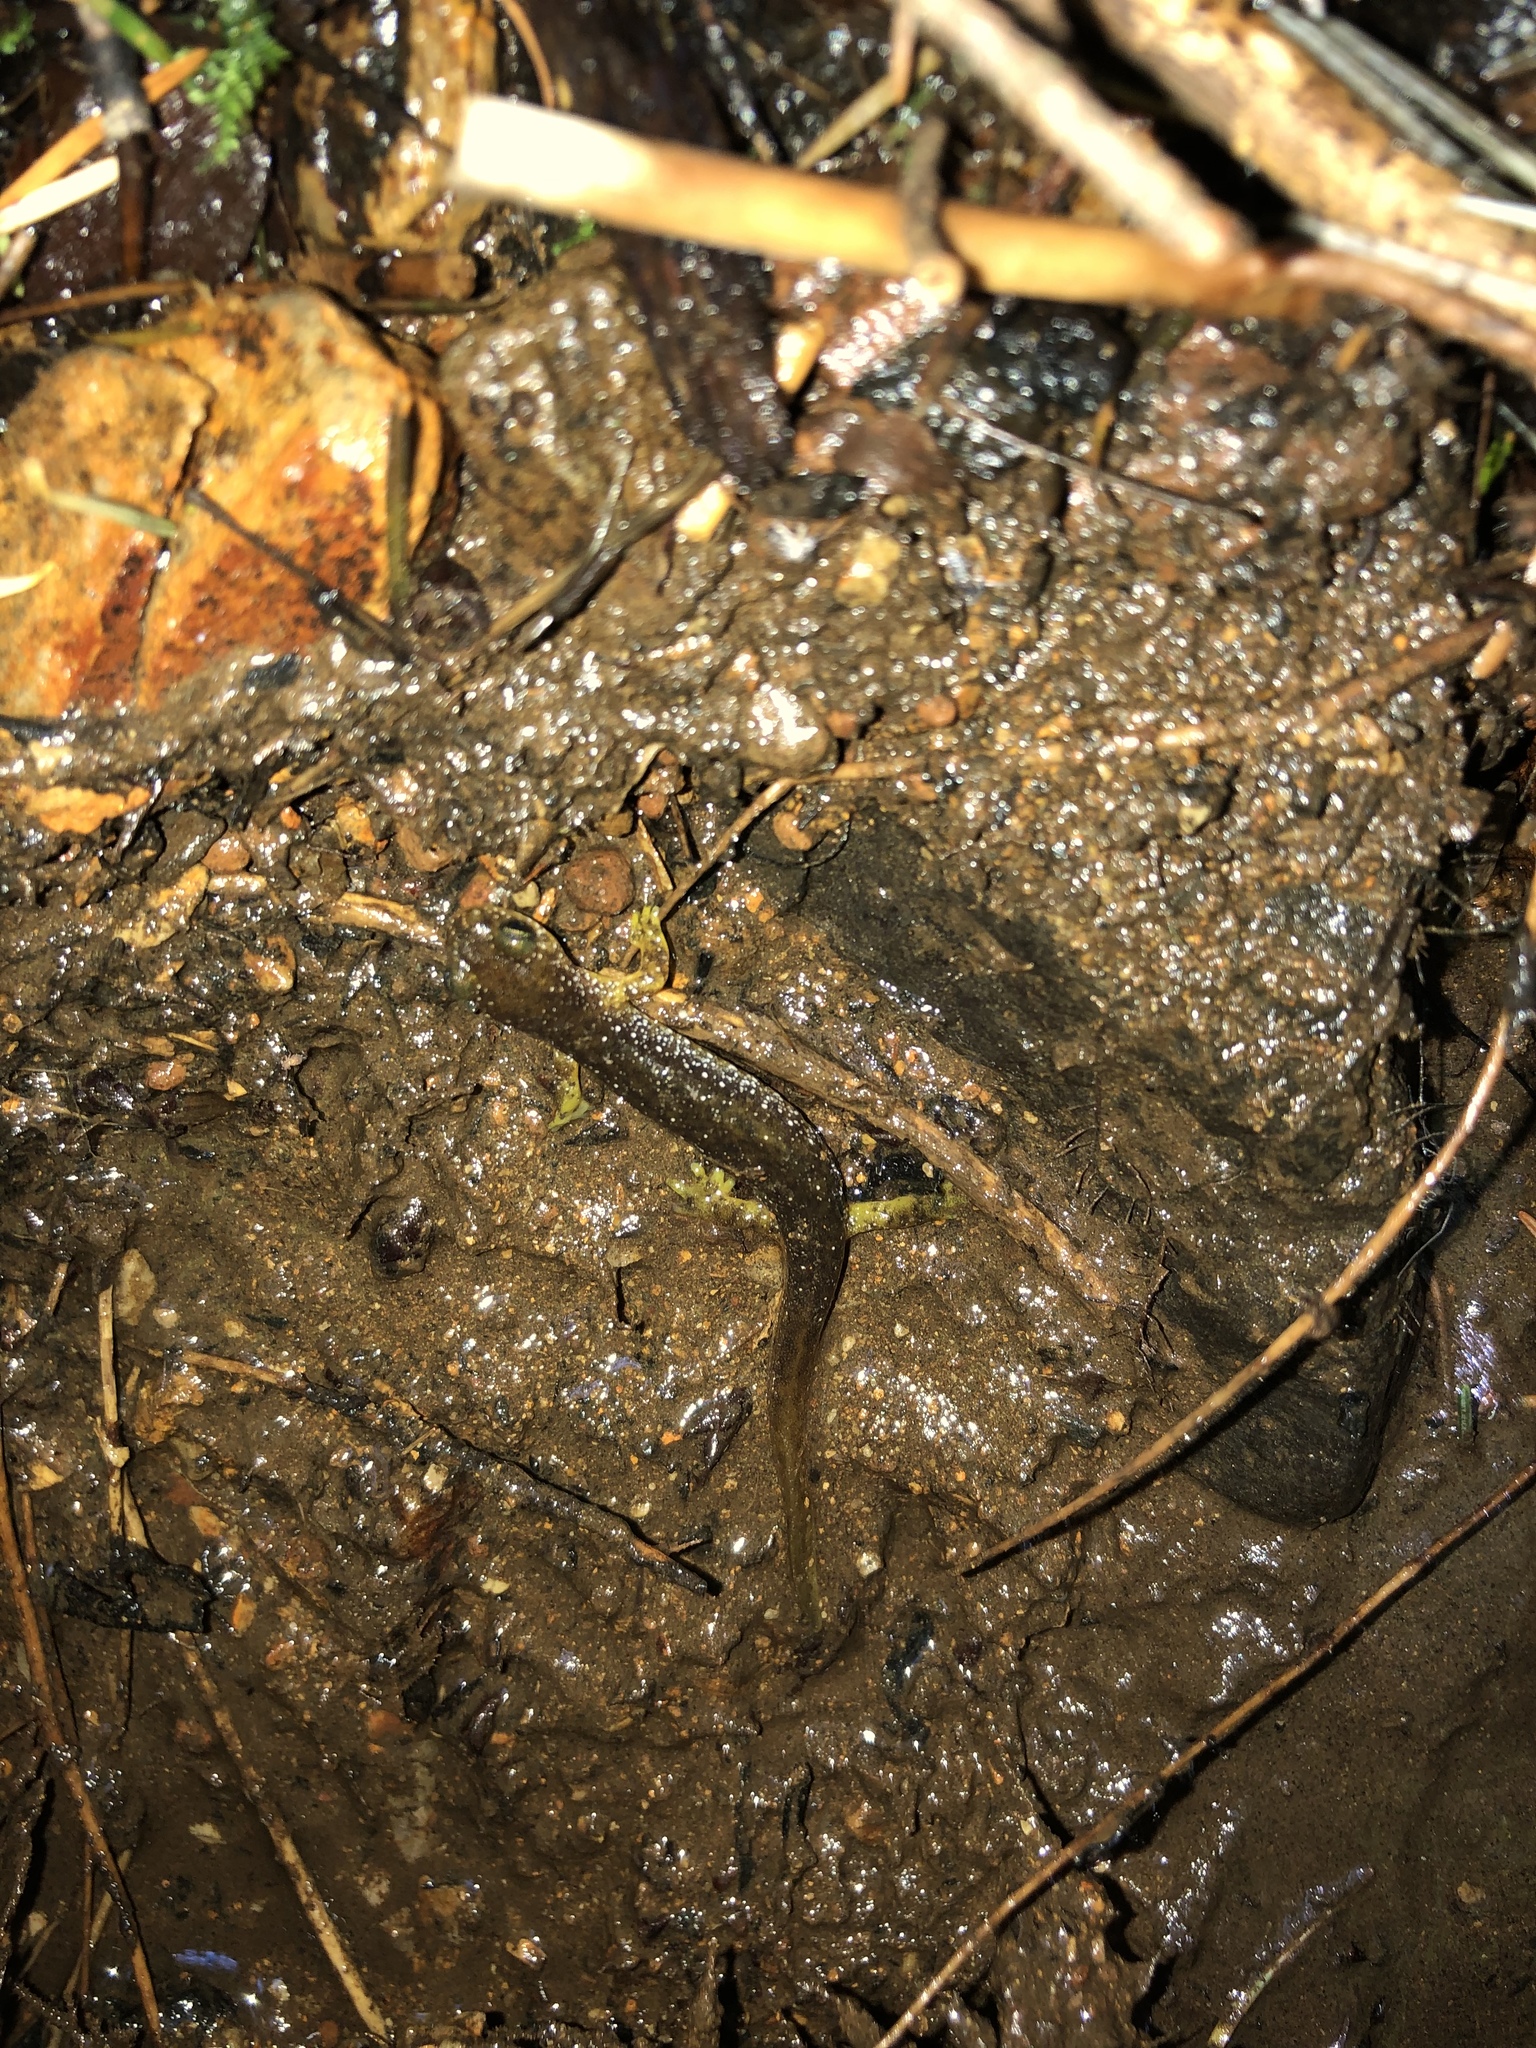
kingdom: Animalia
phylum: Chordata
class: Amphibia
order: Caudata
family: Rhyacotritonidae
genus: Rhyacotriton
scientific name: Rhyacotriton kezeri
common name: Columbia torrent salamander
